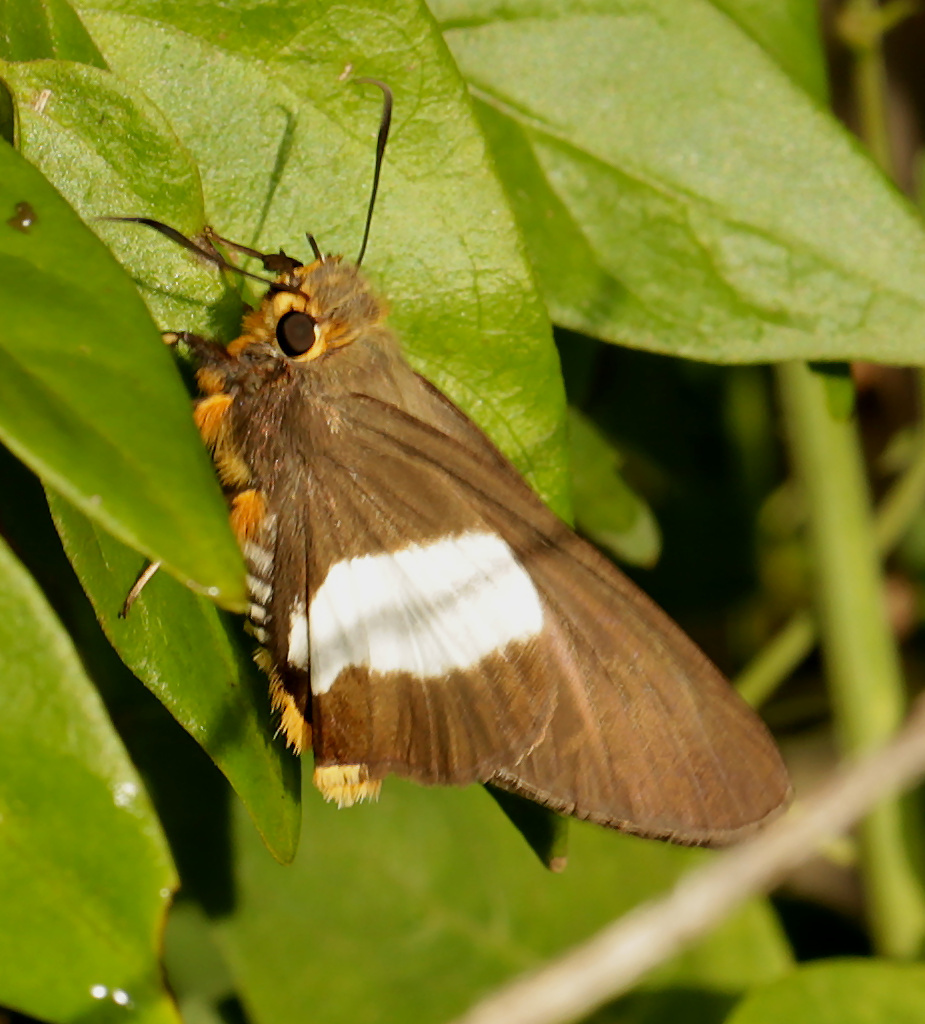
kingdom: Animalia
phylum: Arthropoda
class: Insecta
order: Lepidoptera
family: Hesperiidae
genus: Coeliades
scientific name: Coeliades forestan
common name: Striped policeman
